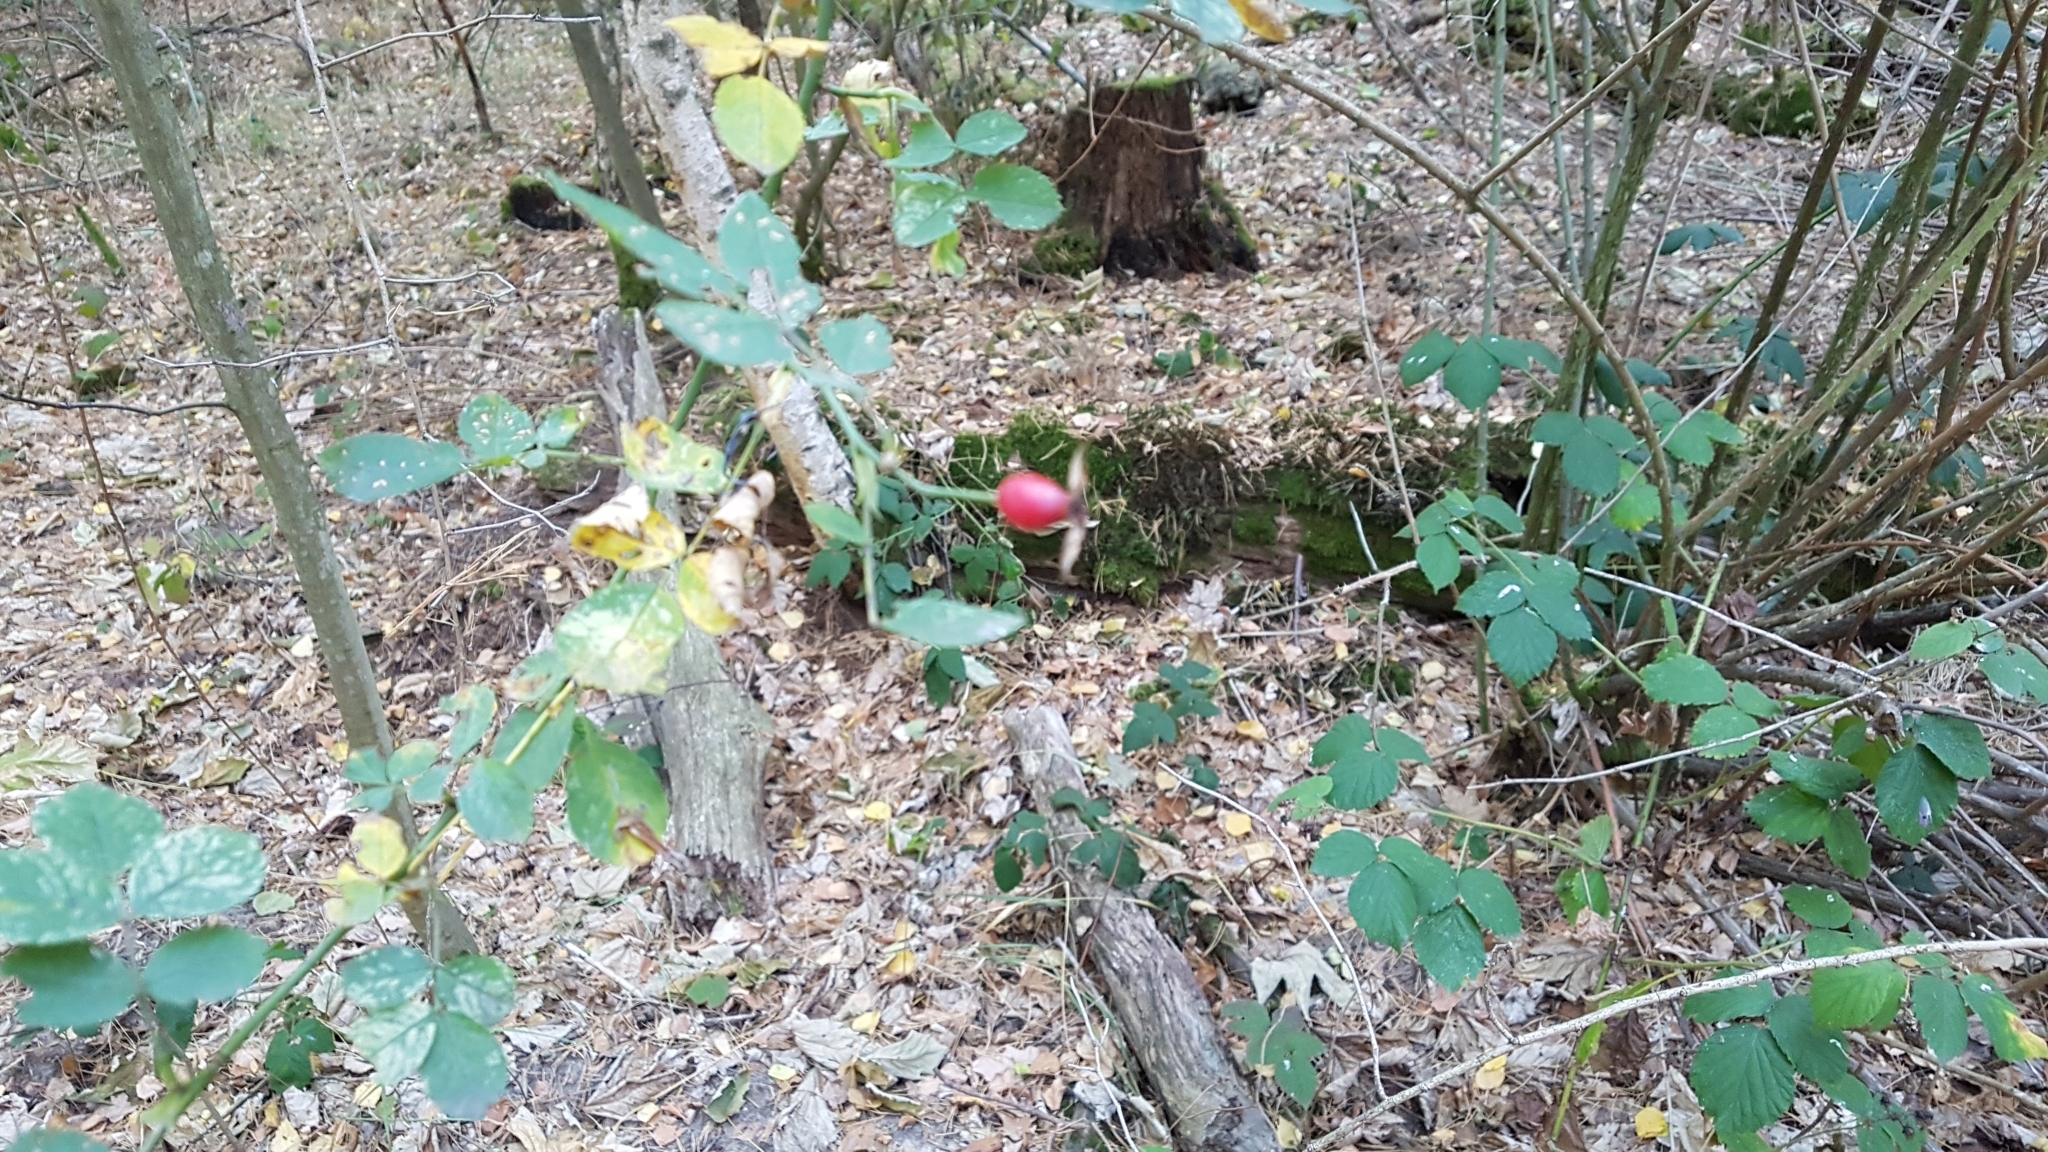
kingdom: Plantae
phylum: Tracheophyta
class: Magnoliopsida
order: Rosales
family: Rosaceae
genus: Rosa
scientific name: Rosa canina
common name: Dog rose
